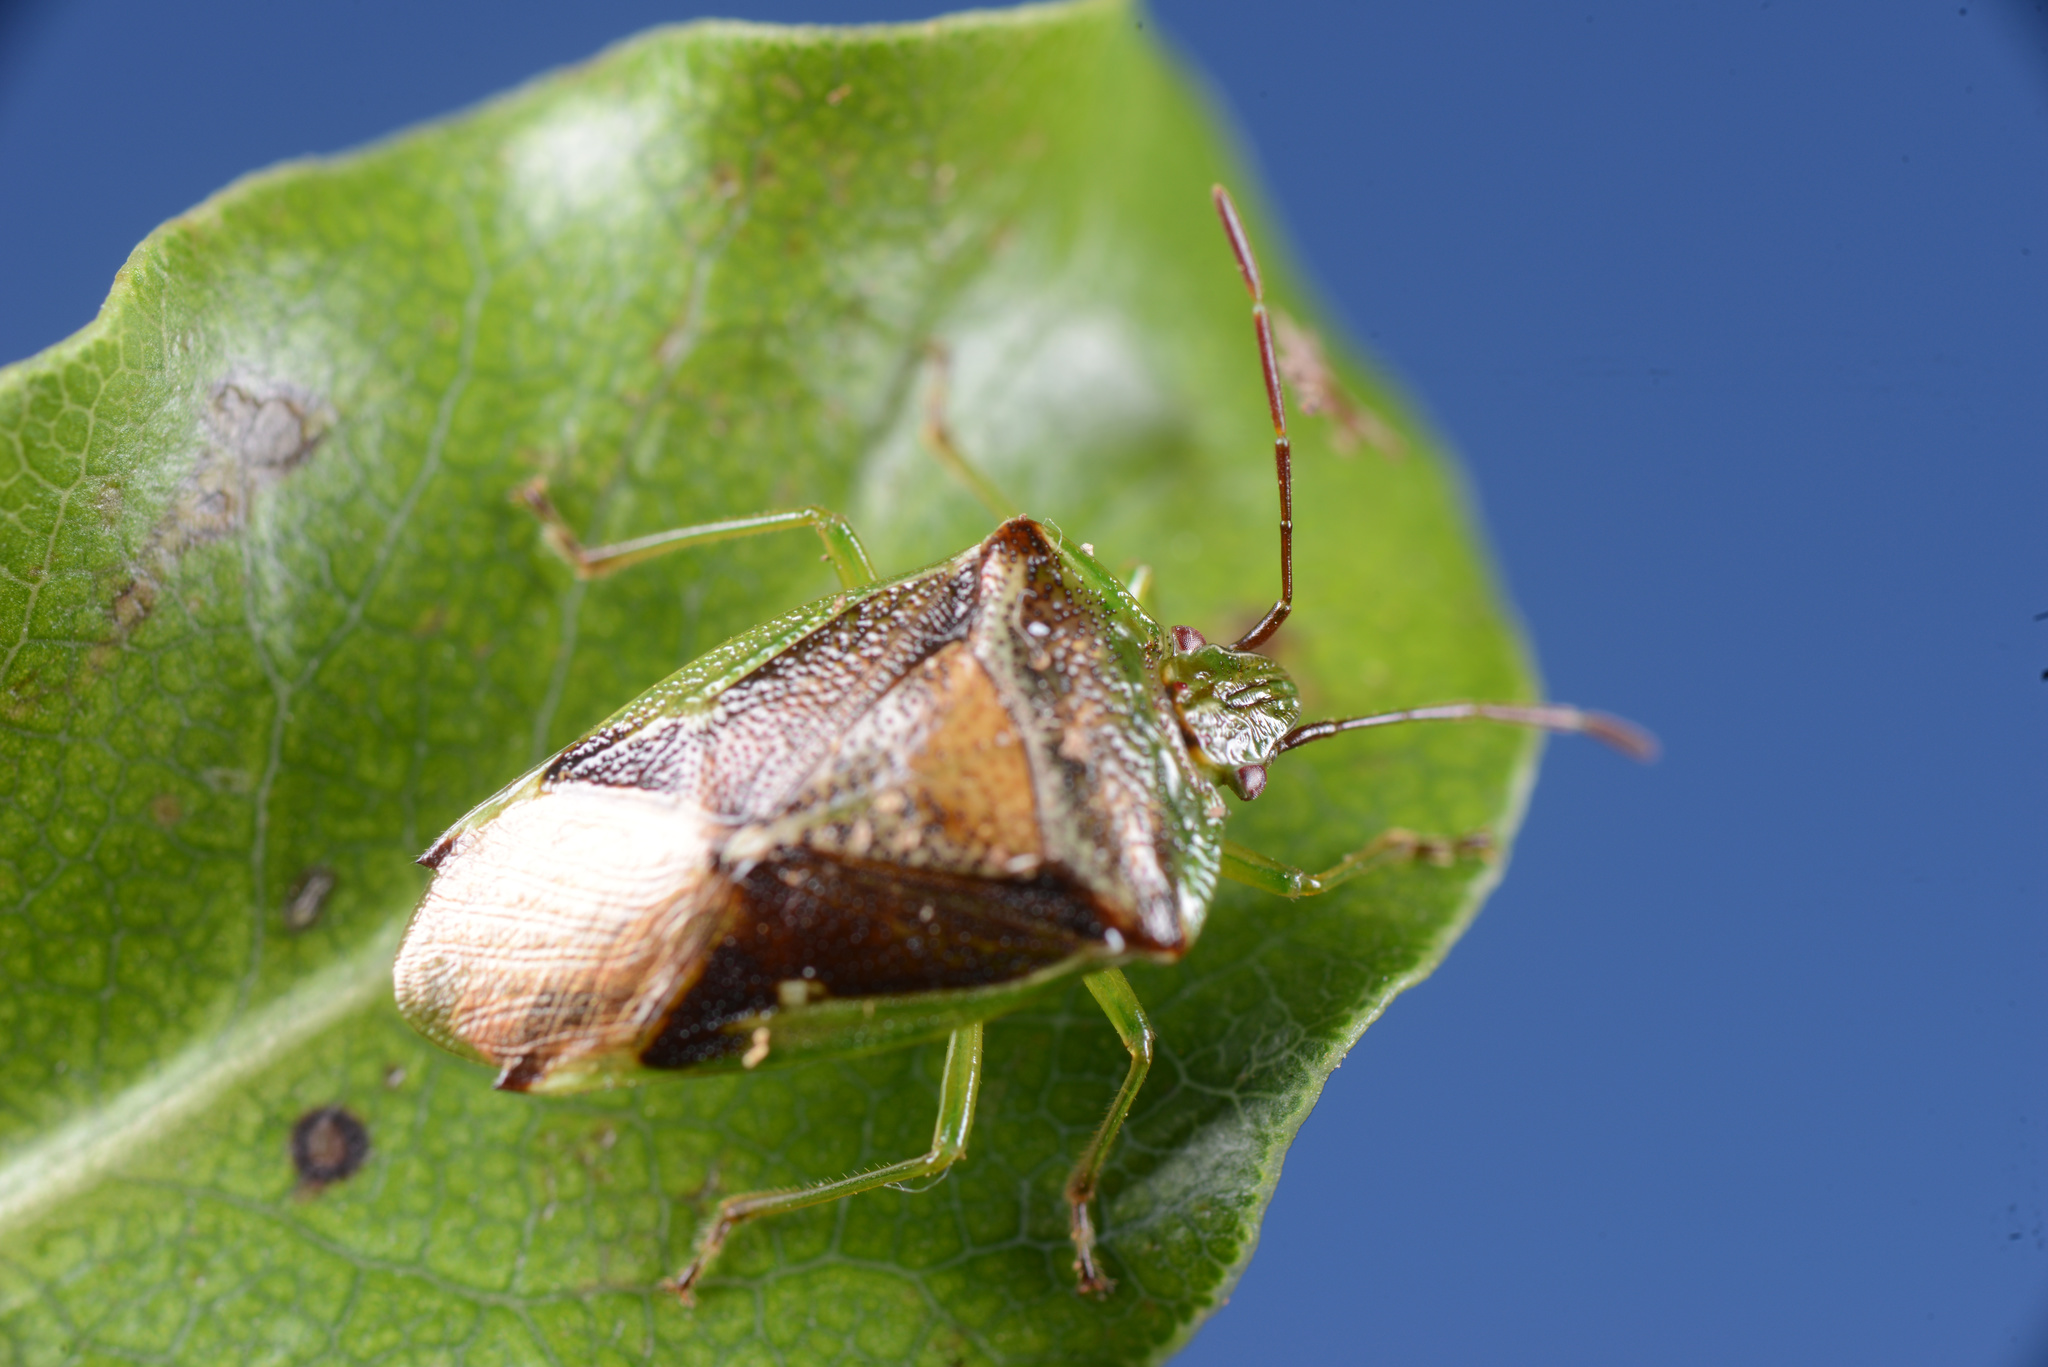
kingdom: Animalia
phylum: Arthropoda
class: Insecta
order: Hemiptera
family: Acanthosomatidae
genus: Oncacontias
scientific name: Oncacontias vittatus
